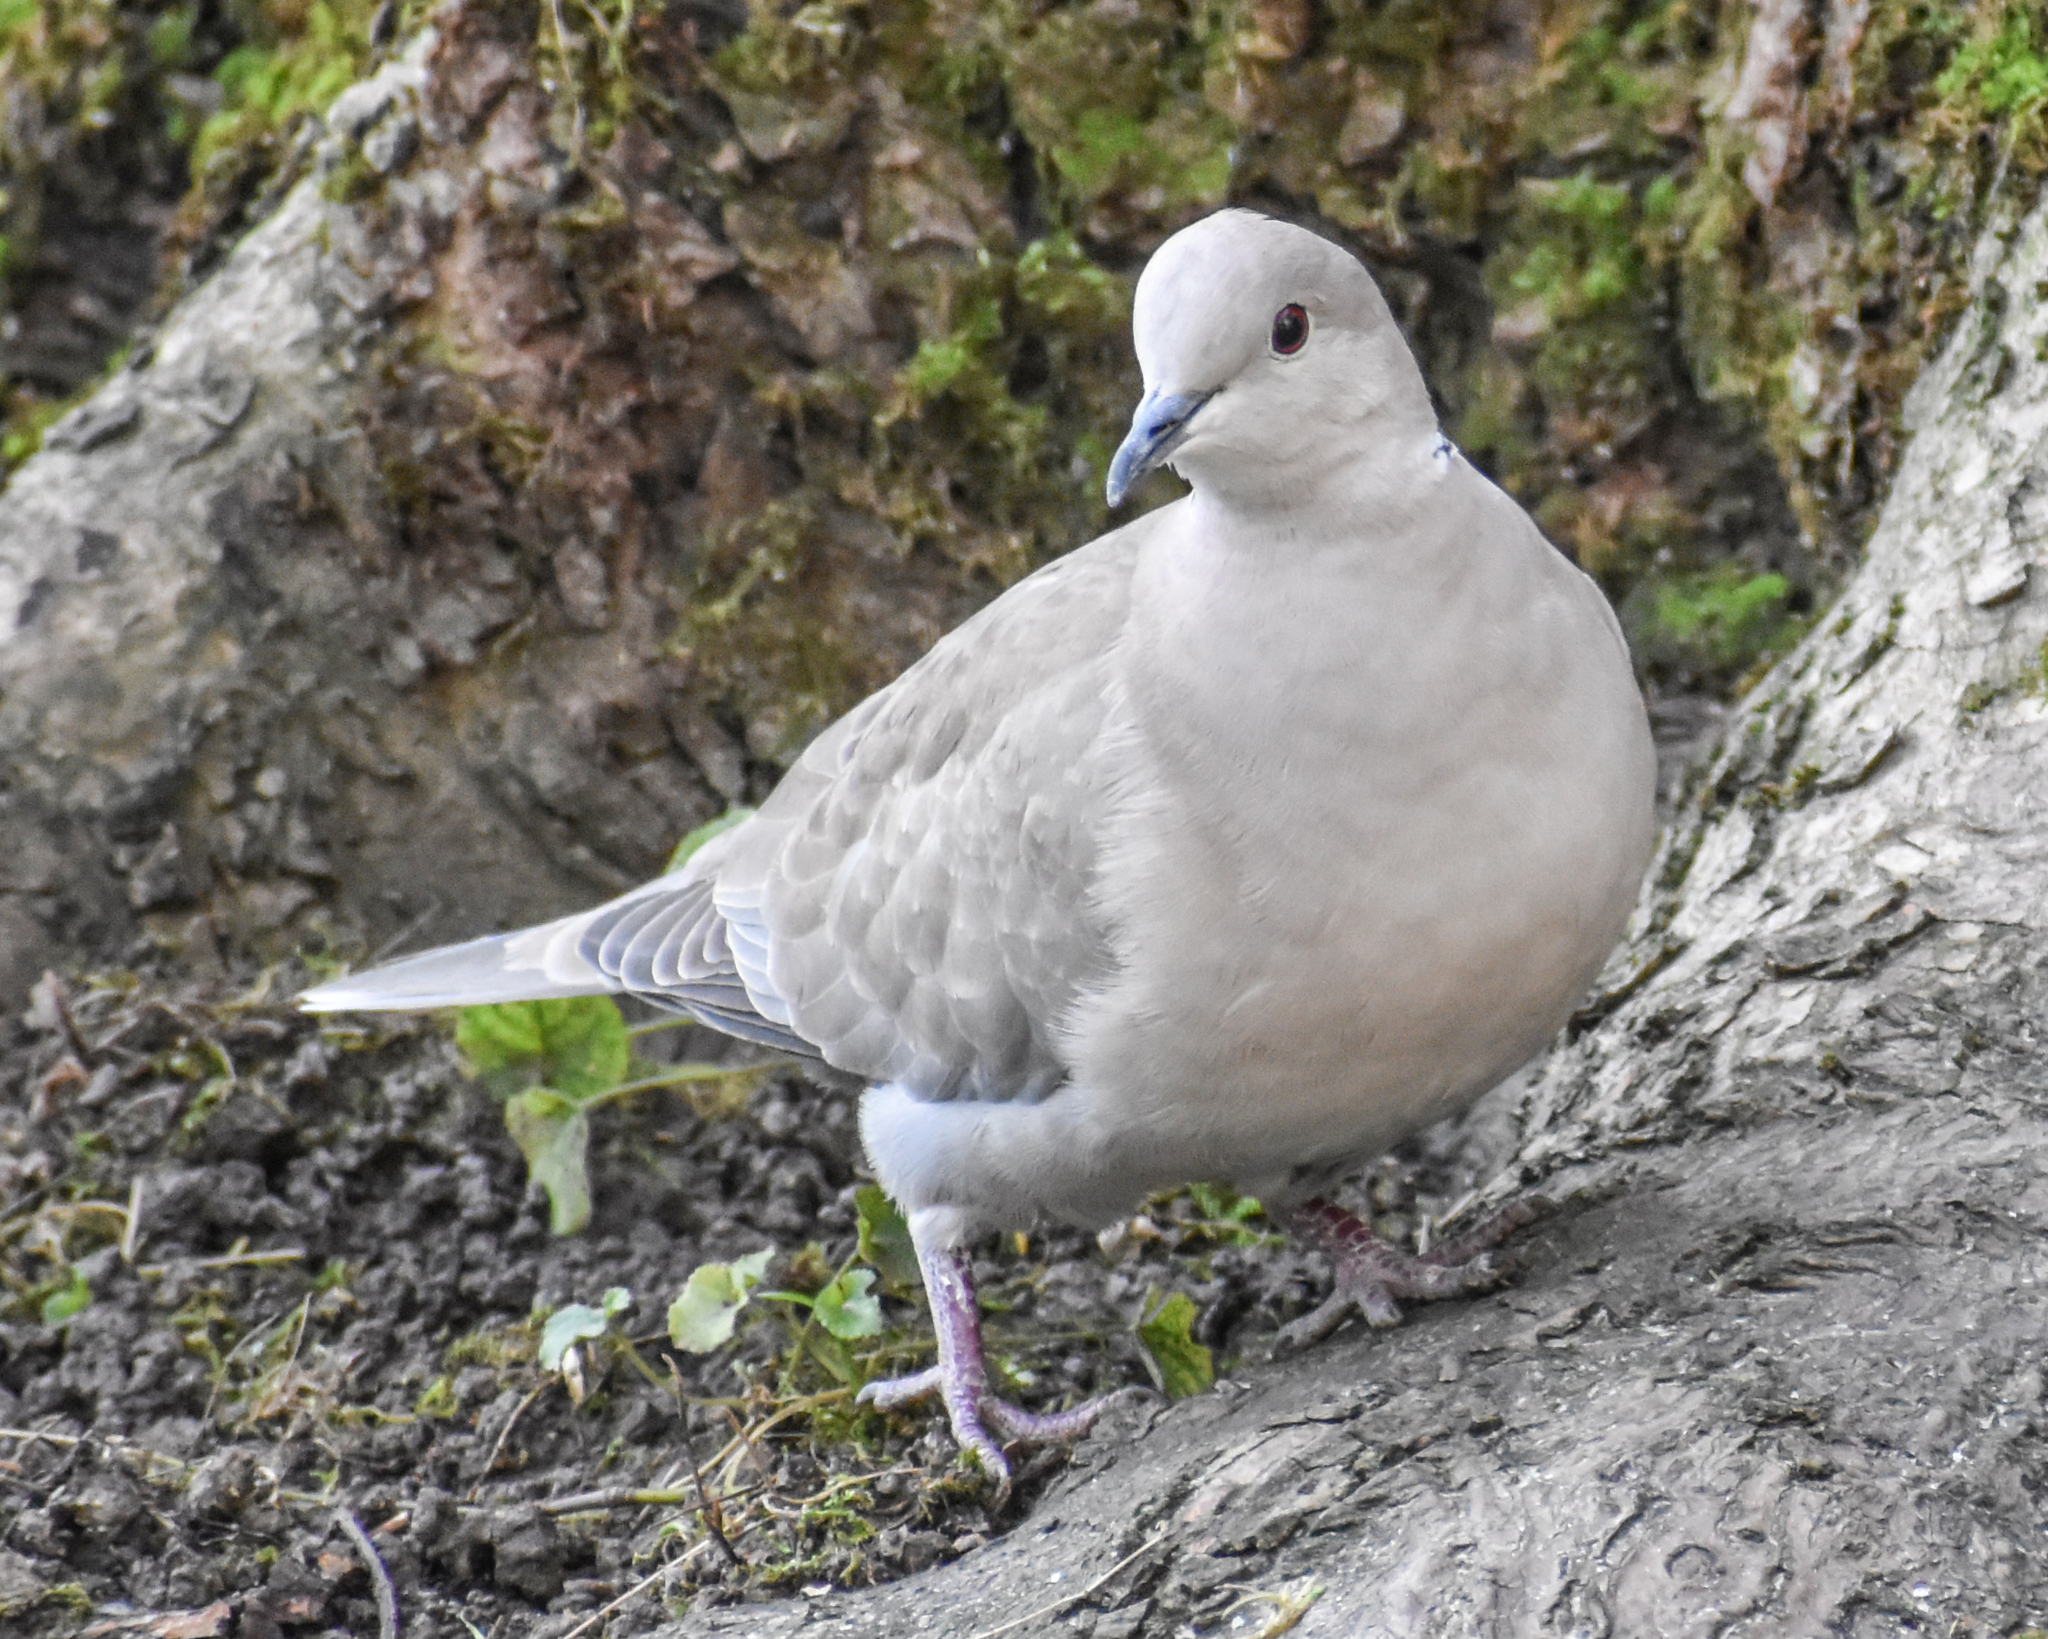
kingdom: Animalia
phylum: Chordata
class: Aves
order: Columbiformes
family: Columbidae
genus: Streptopelia
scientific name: Streptopelia decaocto
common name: Eurasian collared dove
